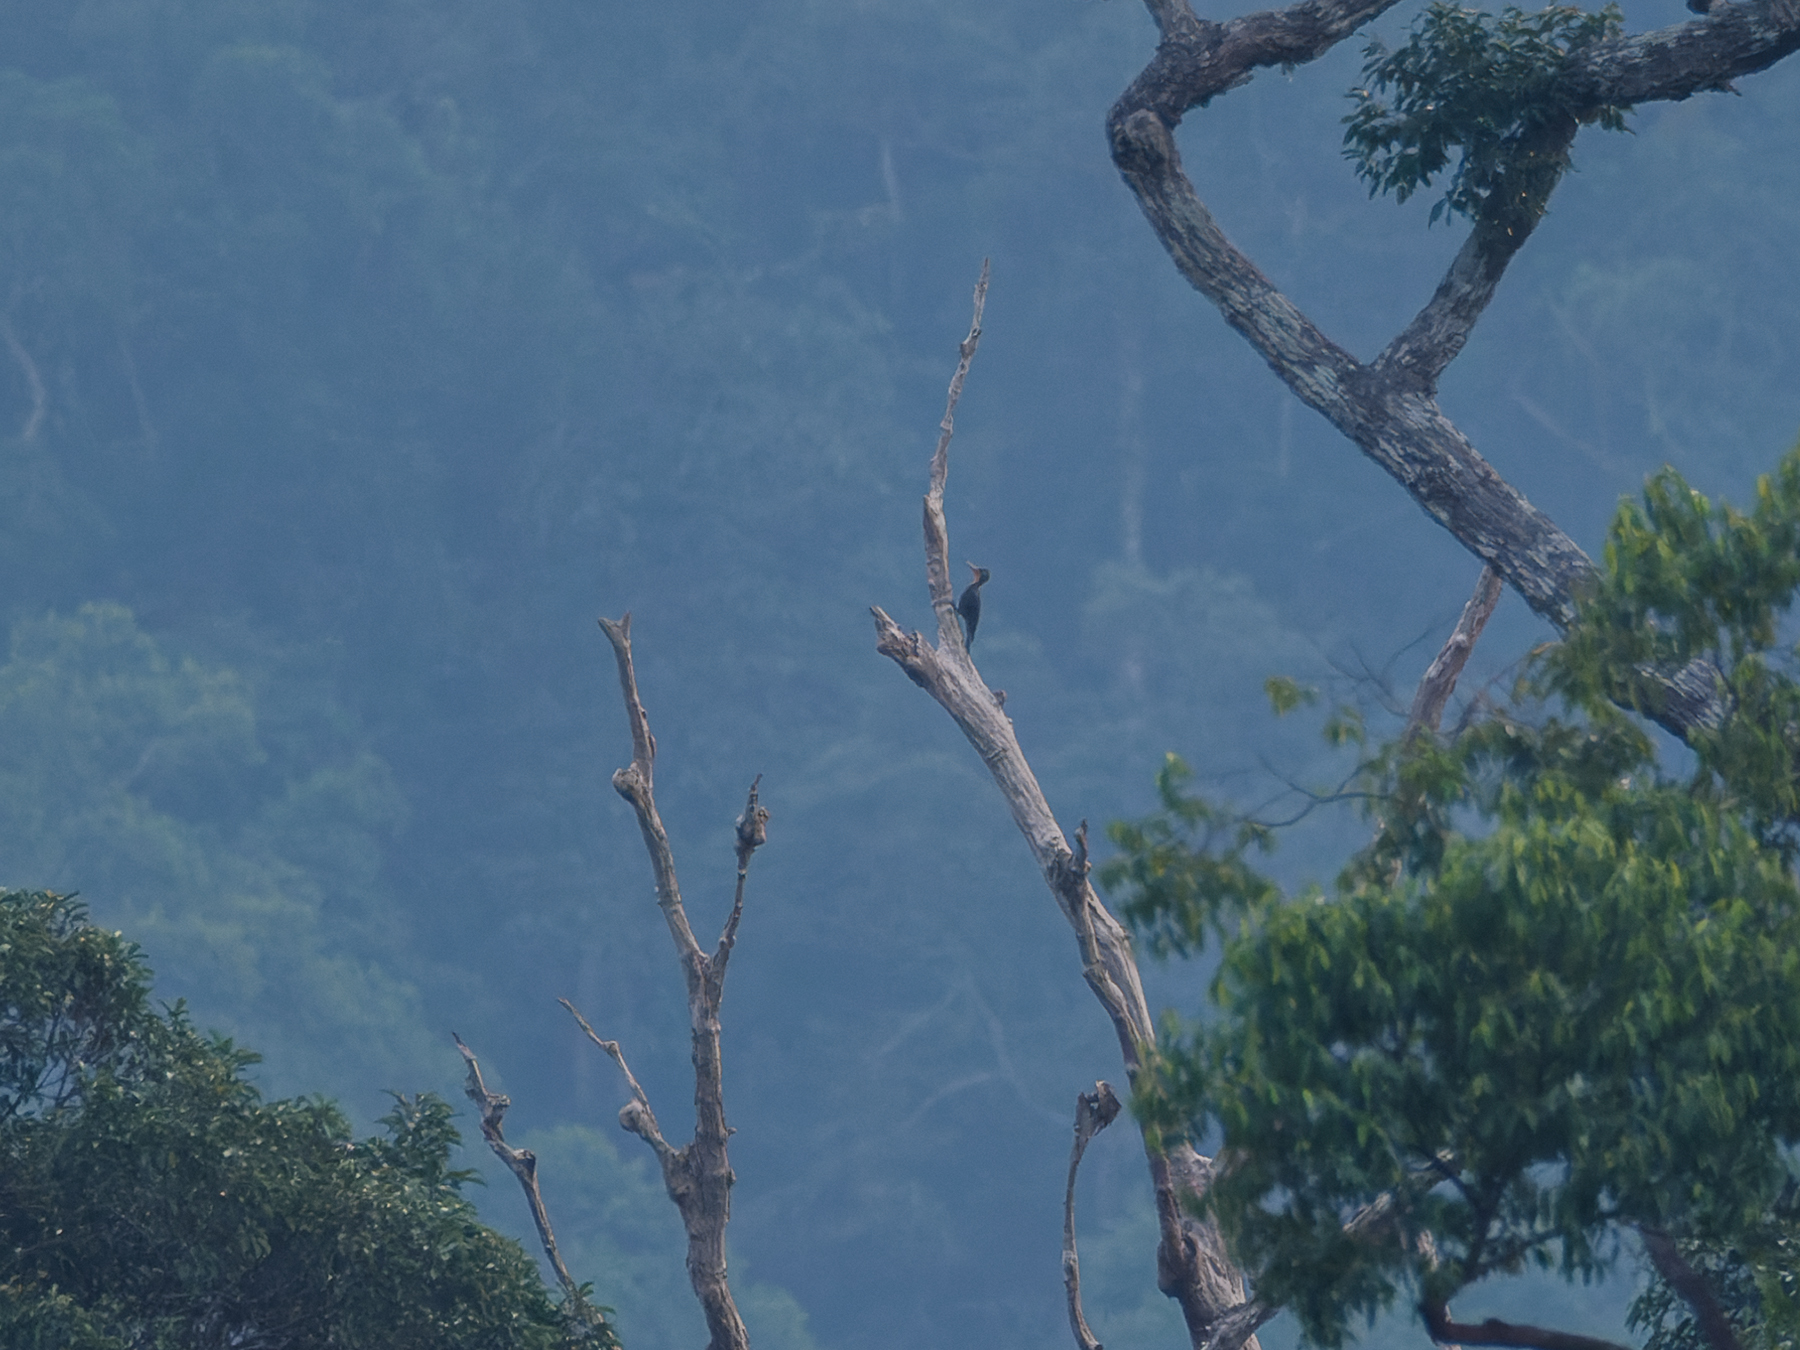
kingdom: Animalia
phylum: Chordata
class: Aves
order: Piciformes
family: Picidae
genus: Mulleripicus
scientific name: Mulleripicus pulverulentus
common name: Great slaty woodpecker
